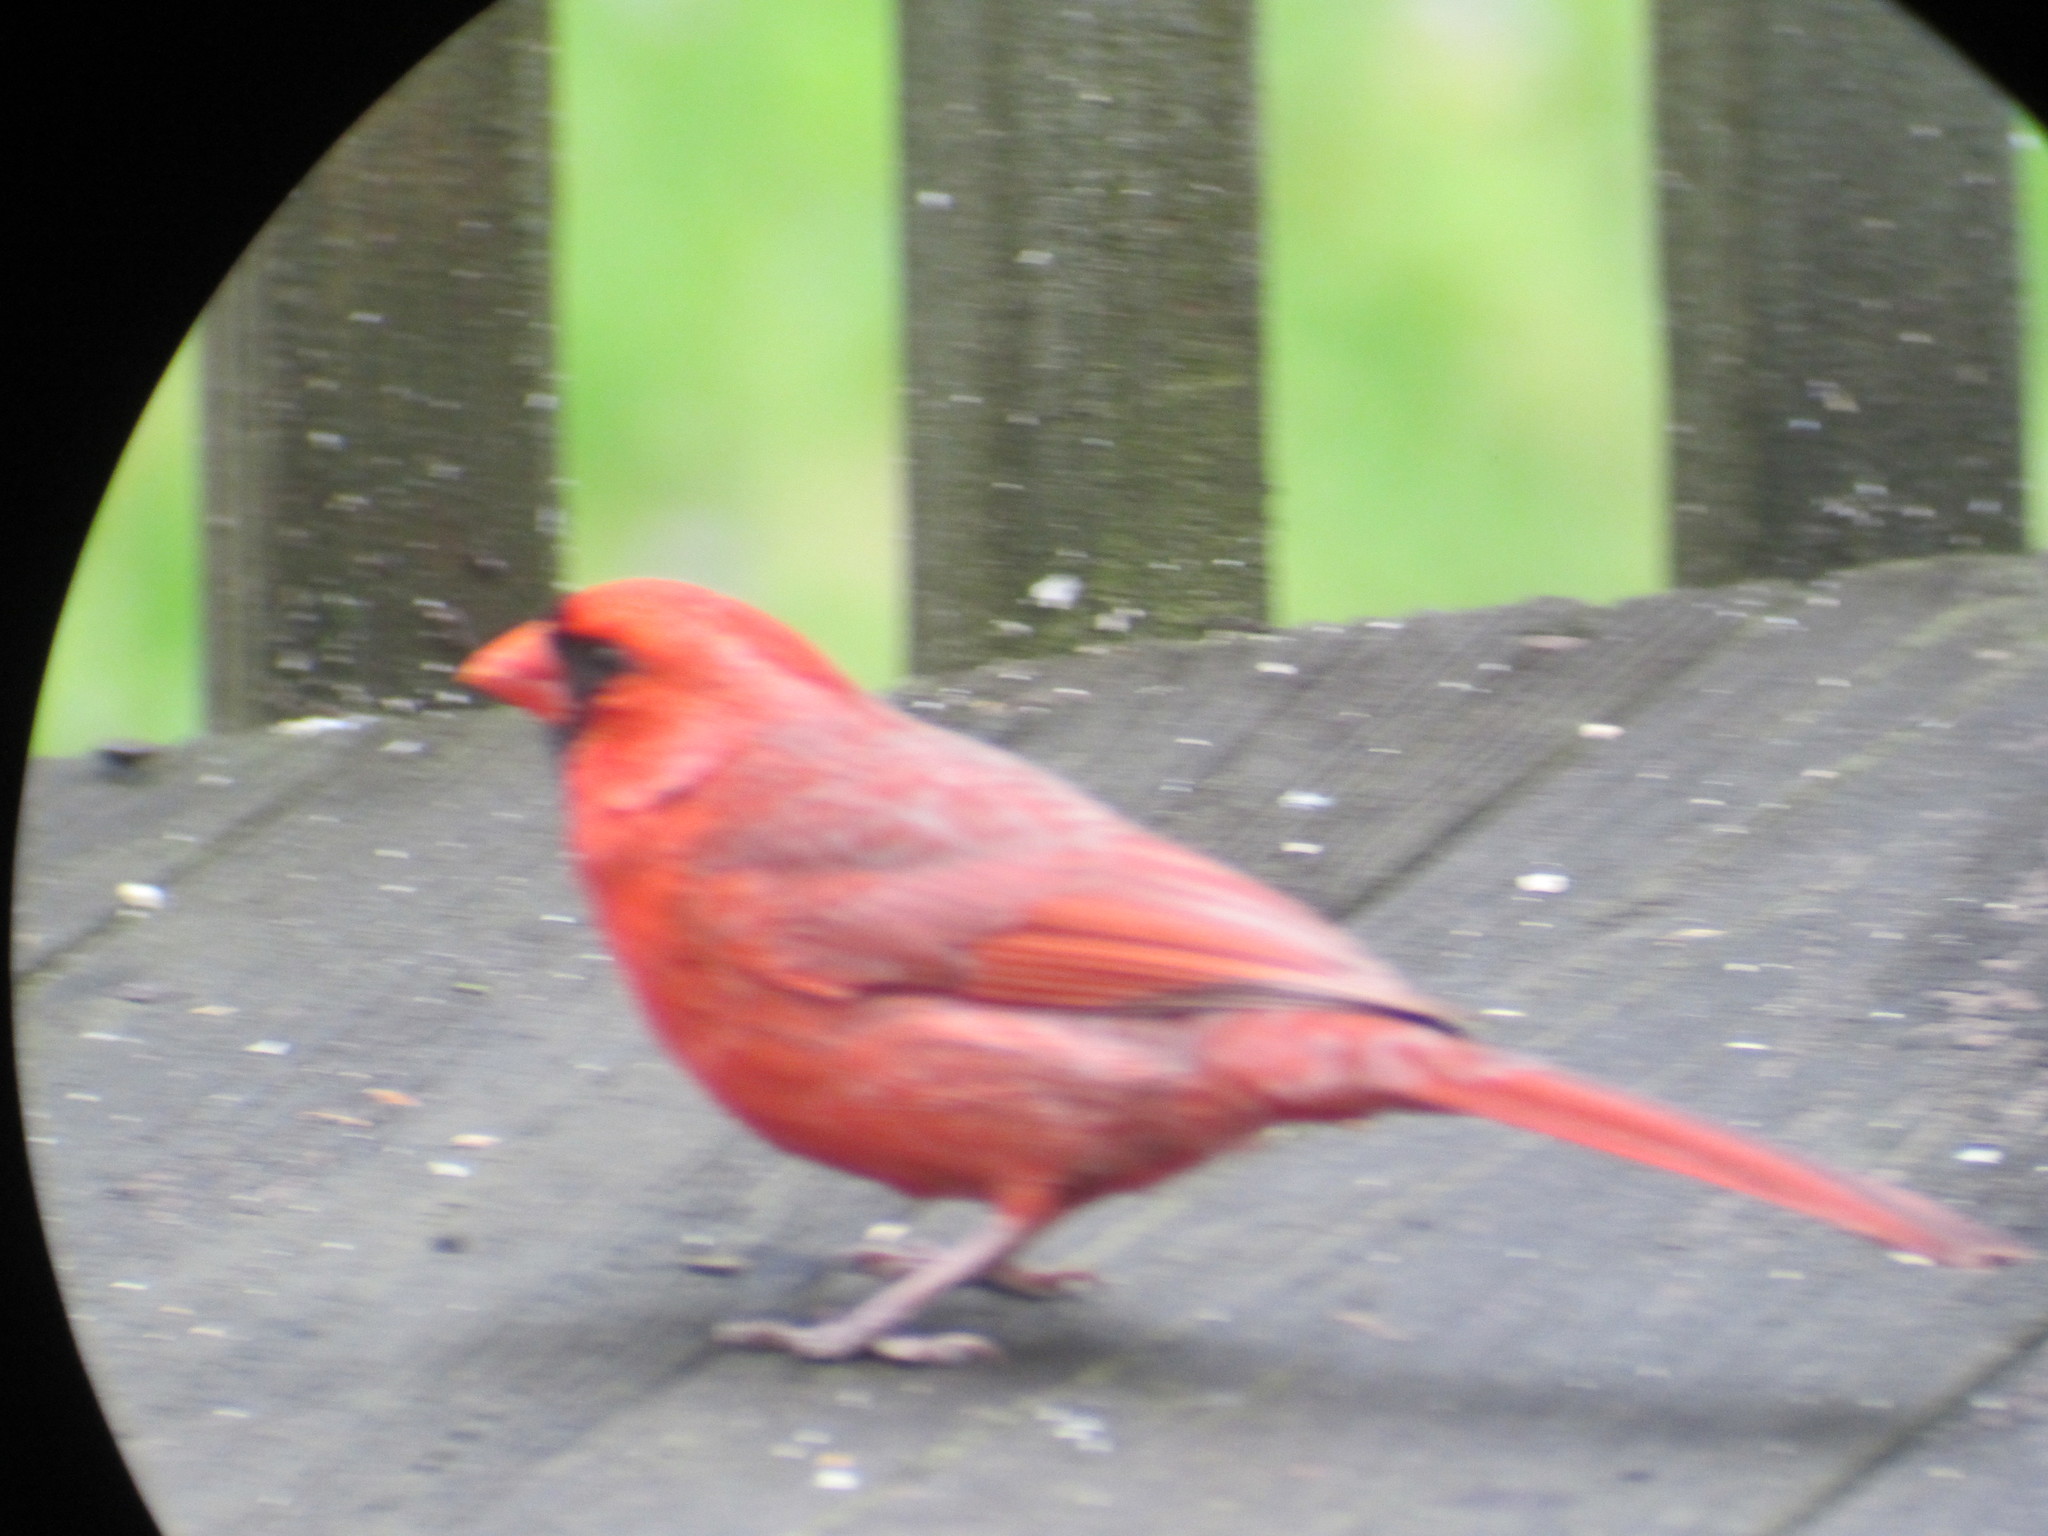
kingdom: Animalia
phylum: Chordata
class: Aves
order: Passeriformes
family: Cardinalidae
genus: Cardinalis
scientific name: Cardinalis cardinalis
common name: Northern cardinal
